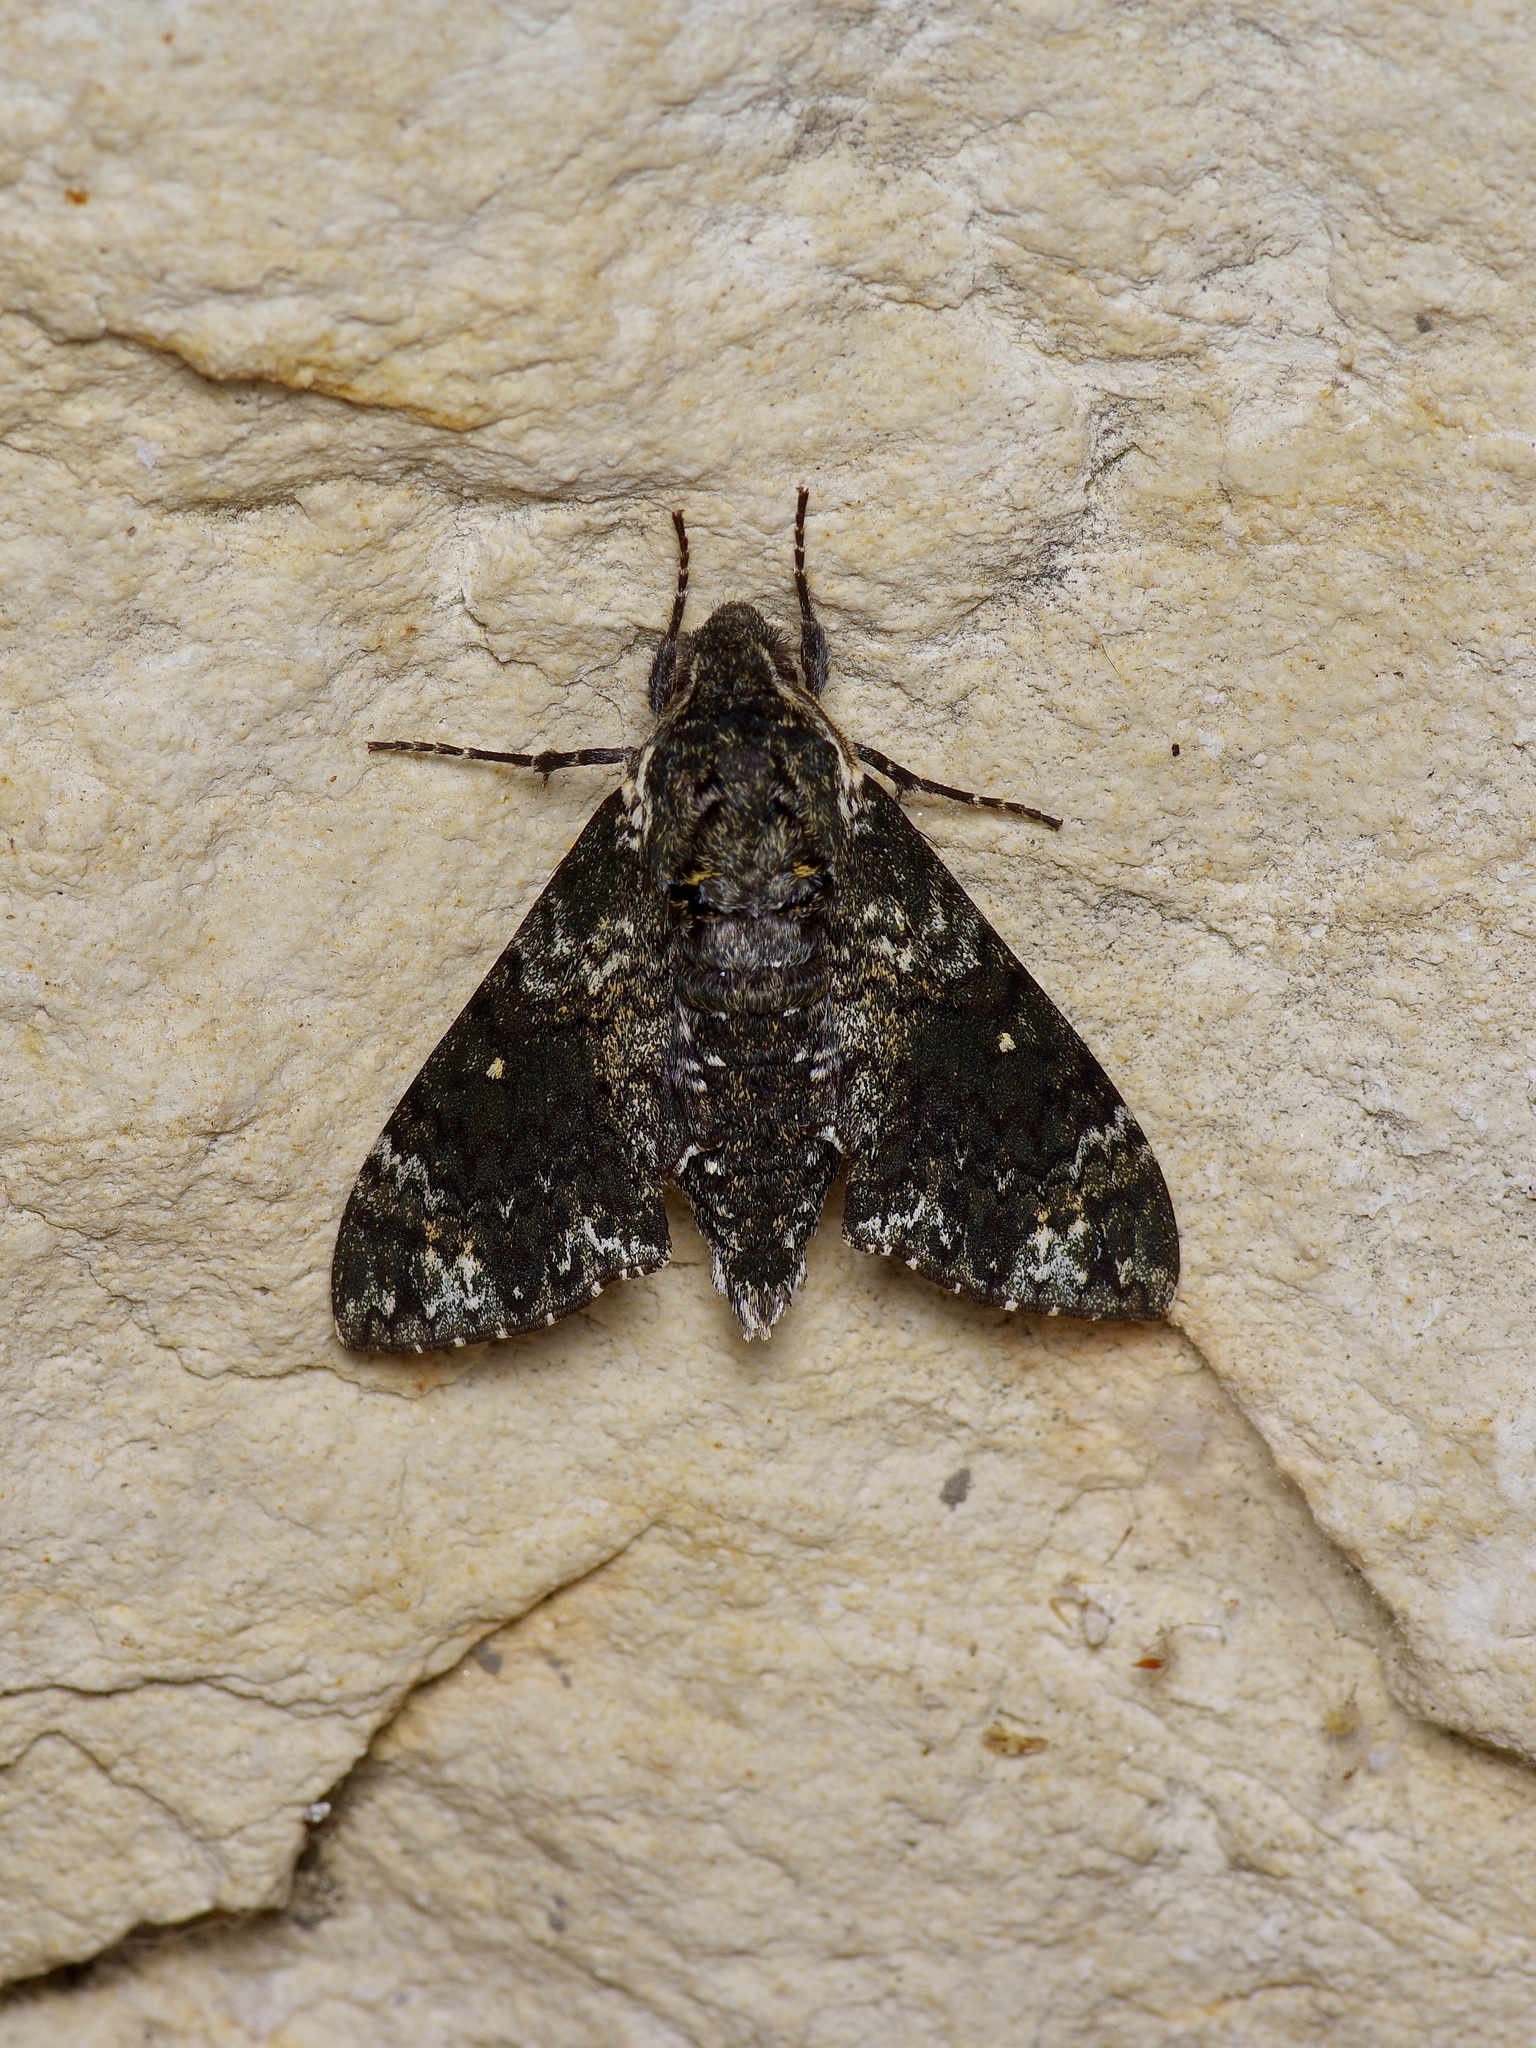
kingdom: Animalia
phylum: Arthropoda
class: Insecta
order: Lepidoptera
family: Sphingidae
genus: Dolba
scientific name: Dolba hyloeus
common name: Pawpaw sphinx
